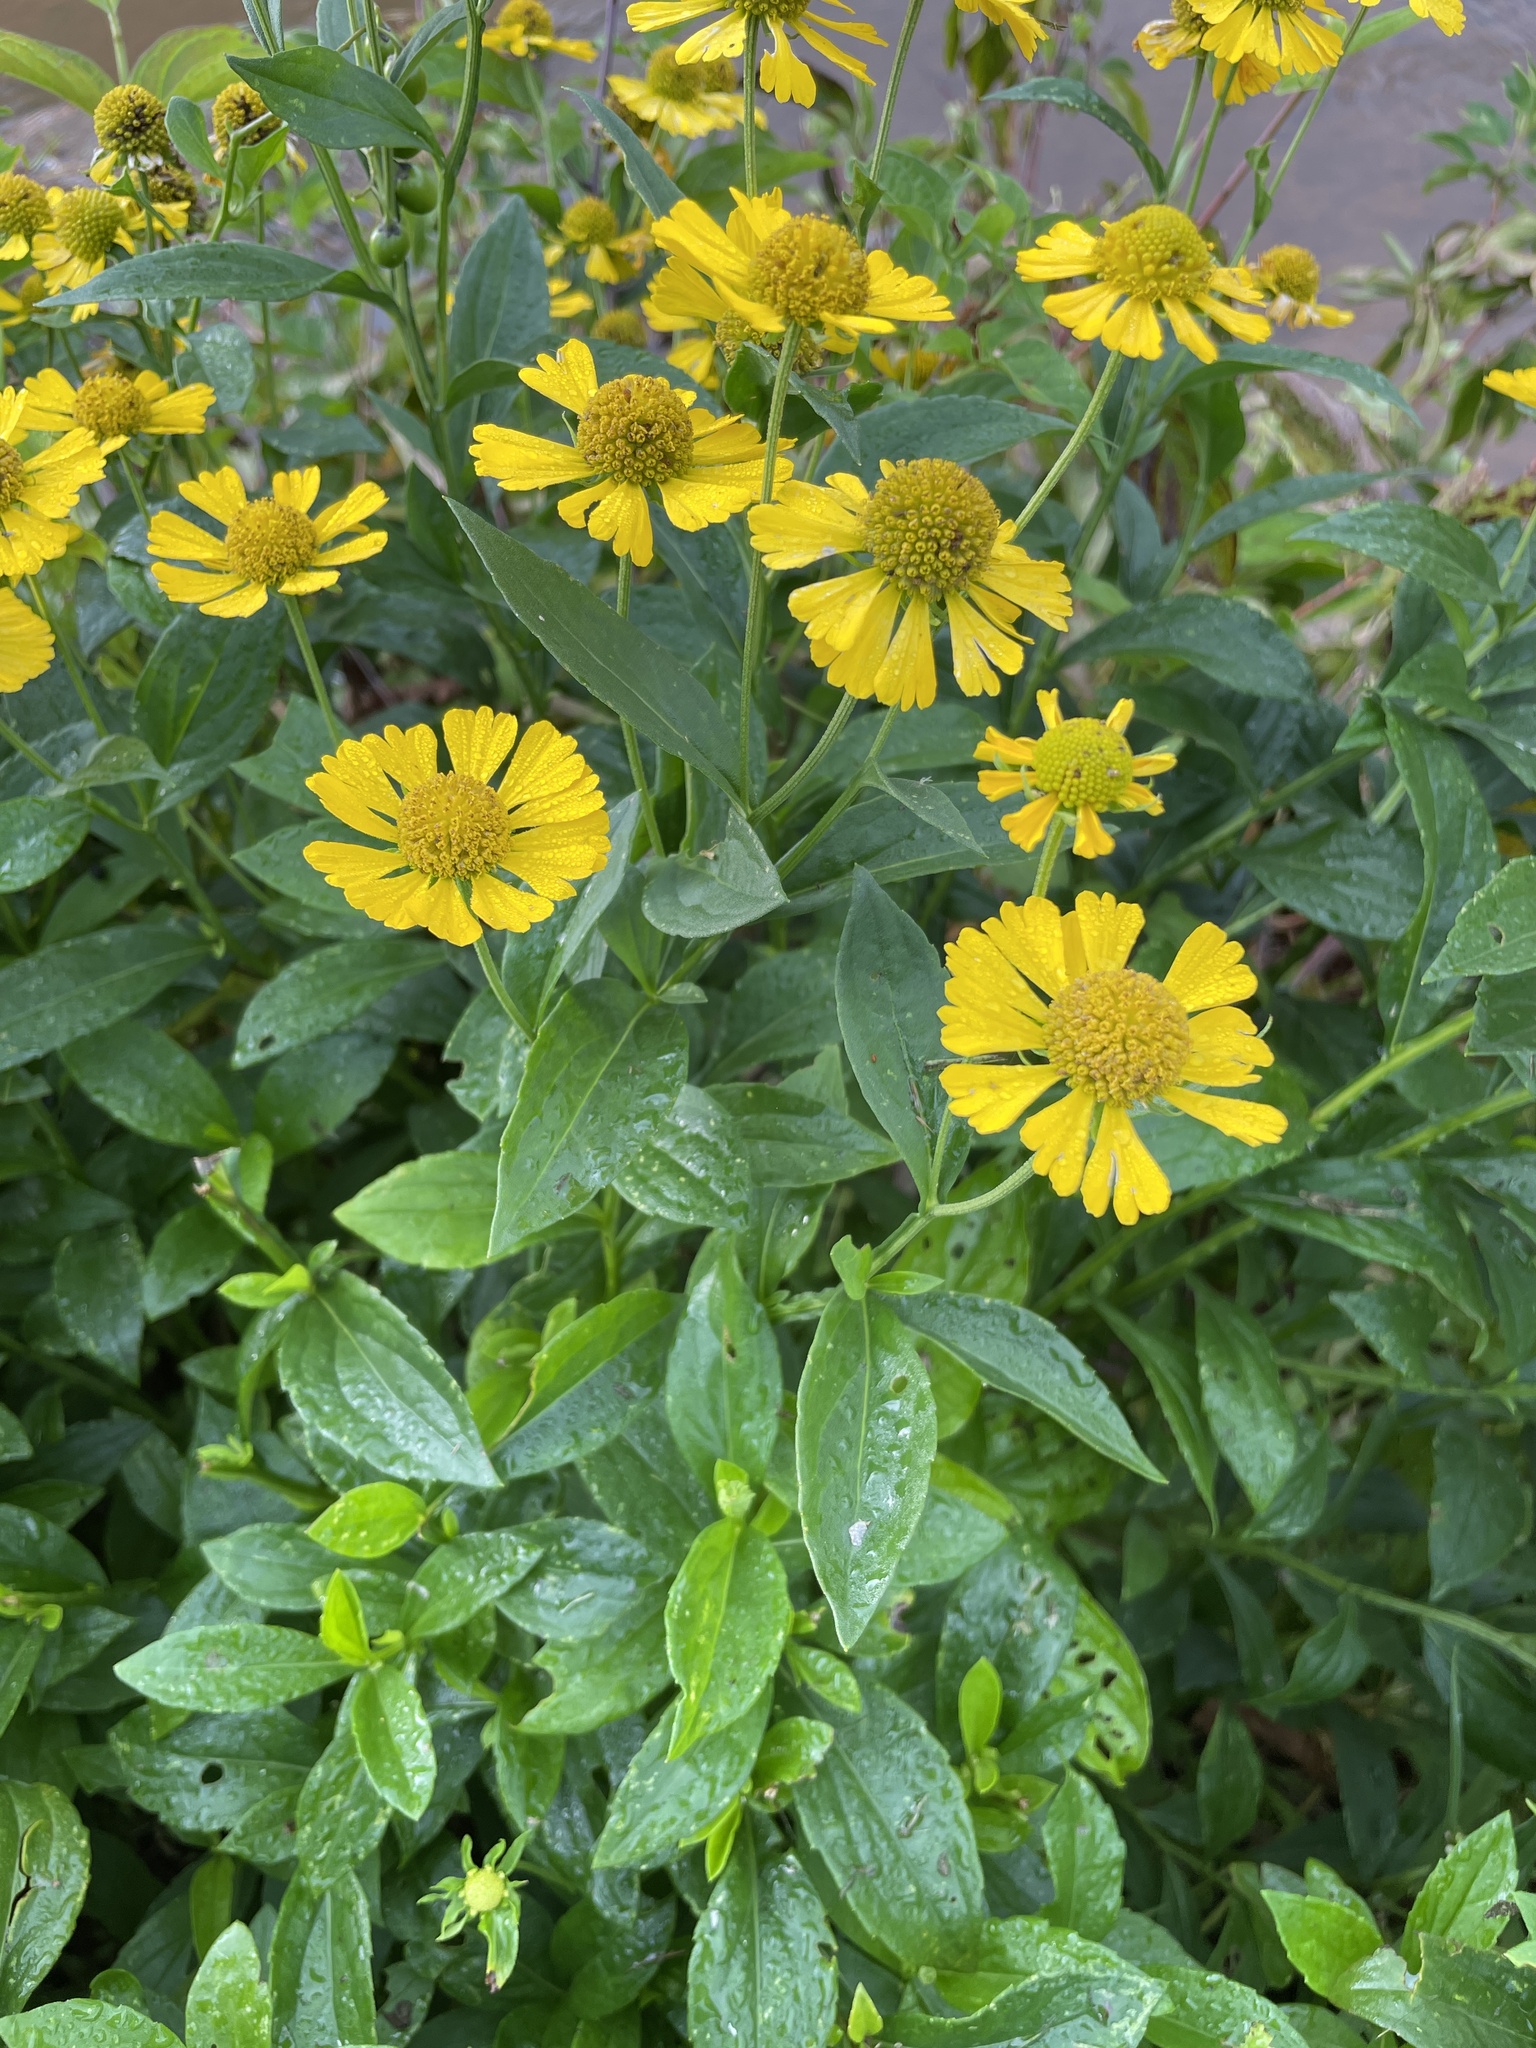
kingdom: Plantae
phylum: Tracheophyta
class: Magnoliopsida
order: Asterales
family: Asteraceae
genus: Helenium
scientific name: Helenium autumnale
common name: Sneezeweed
